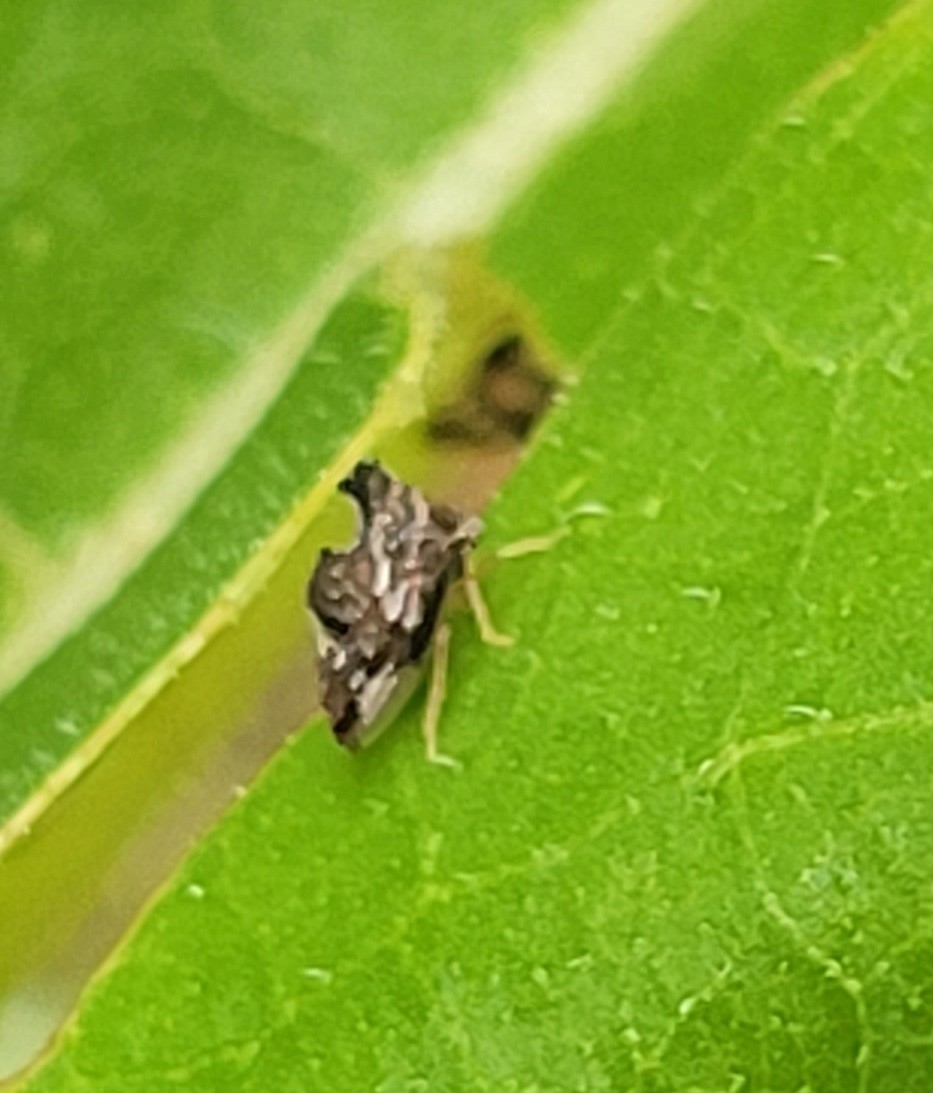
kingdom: Animalia
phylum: Arthropoda
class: Insecta
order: Hemiptera
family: Membracidae
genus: Entylia
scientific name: Entylia carinata
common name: Keeled treehopper
